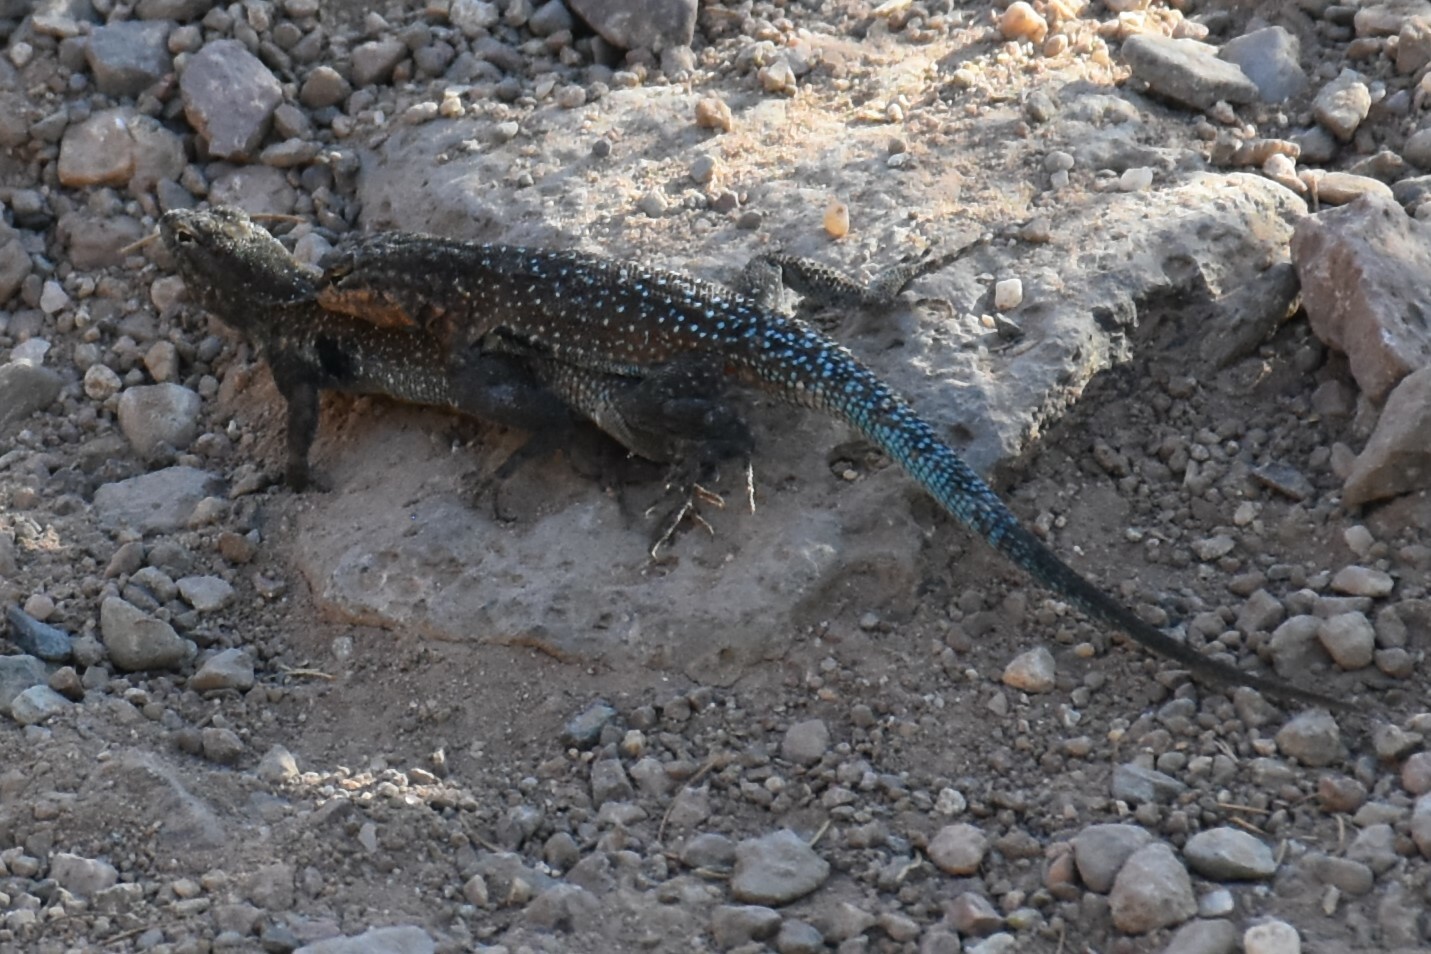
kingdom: Animalia
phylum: Chordata
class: Squamata
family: Phrynosomatidae
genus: Uta
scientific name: Uta stansburiana
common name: Side-blotched lizard
